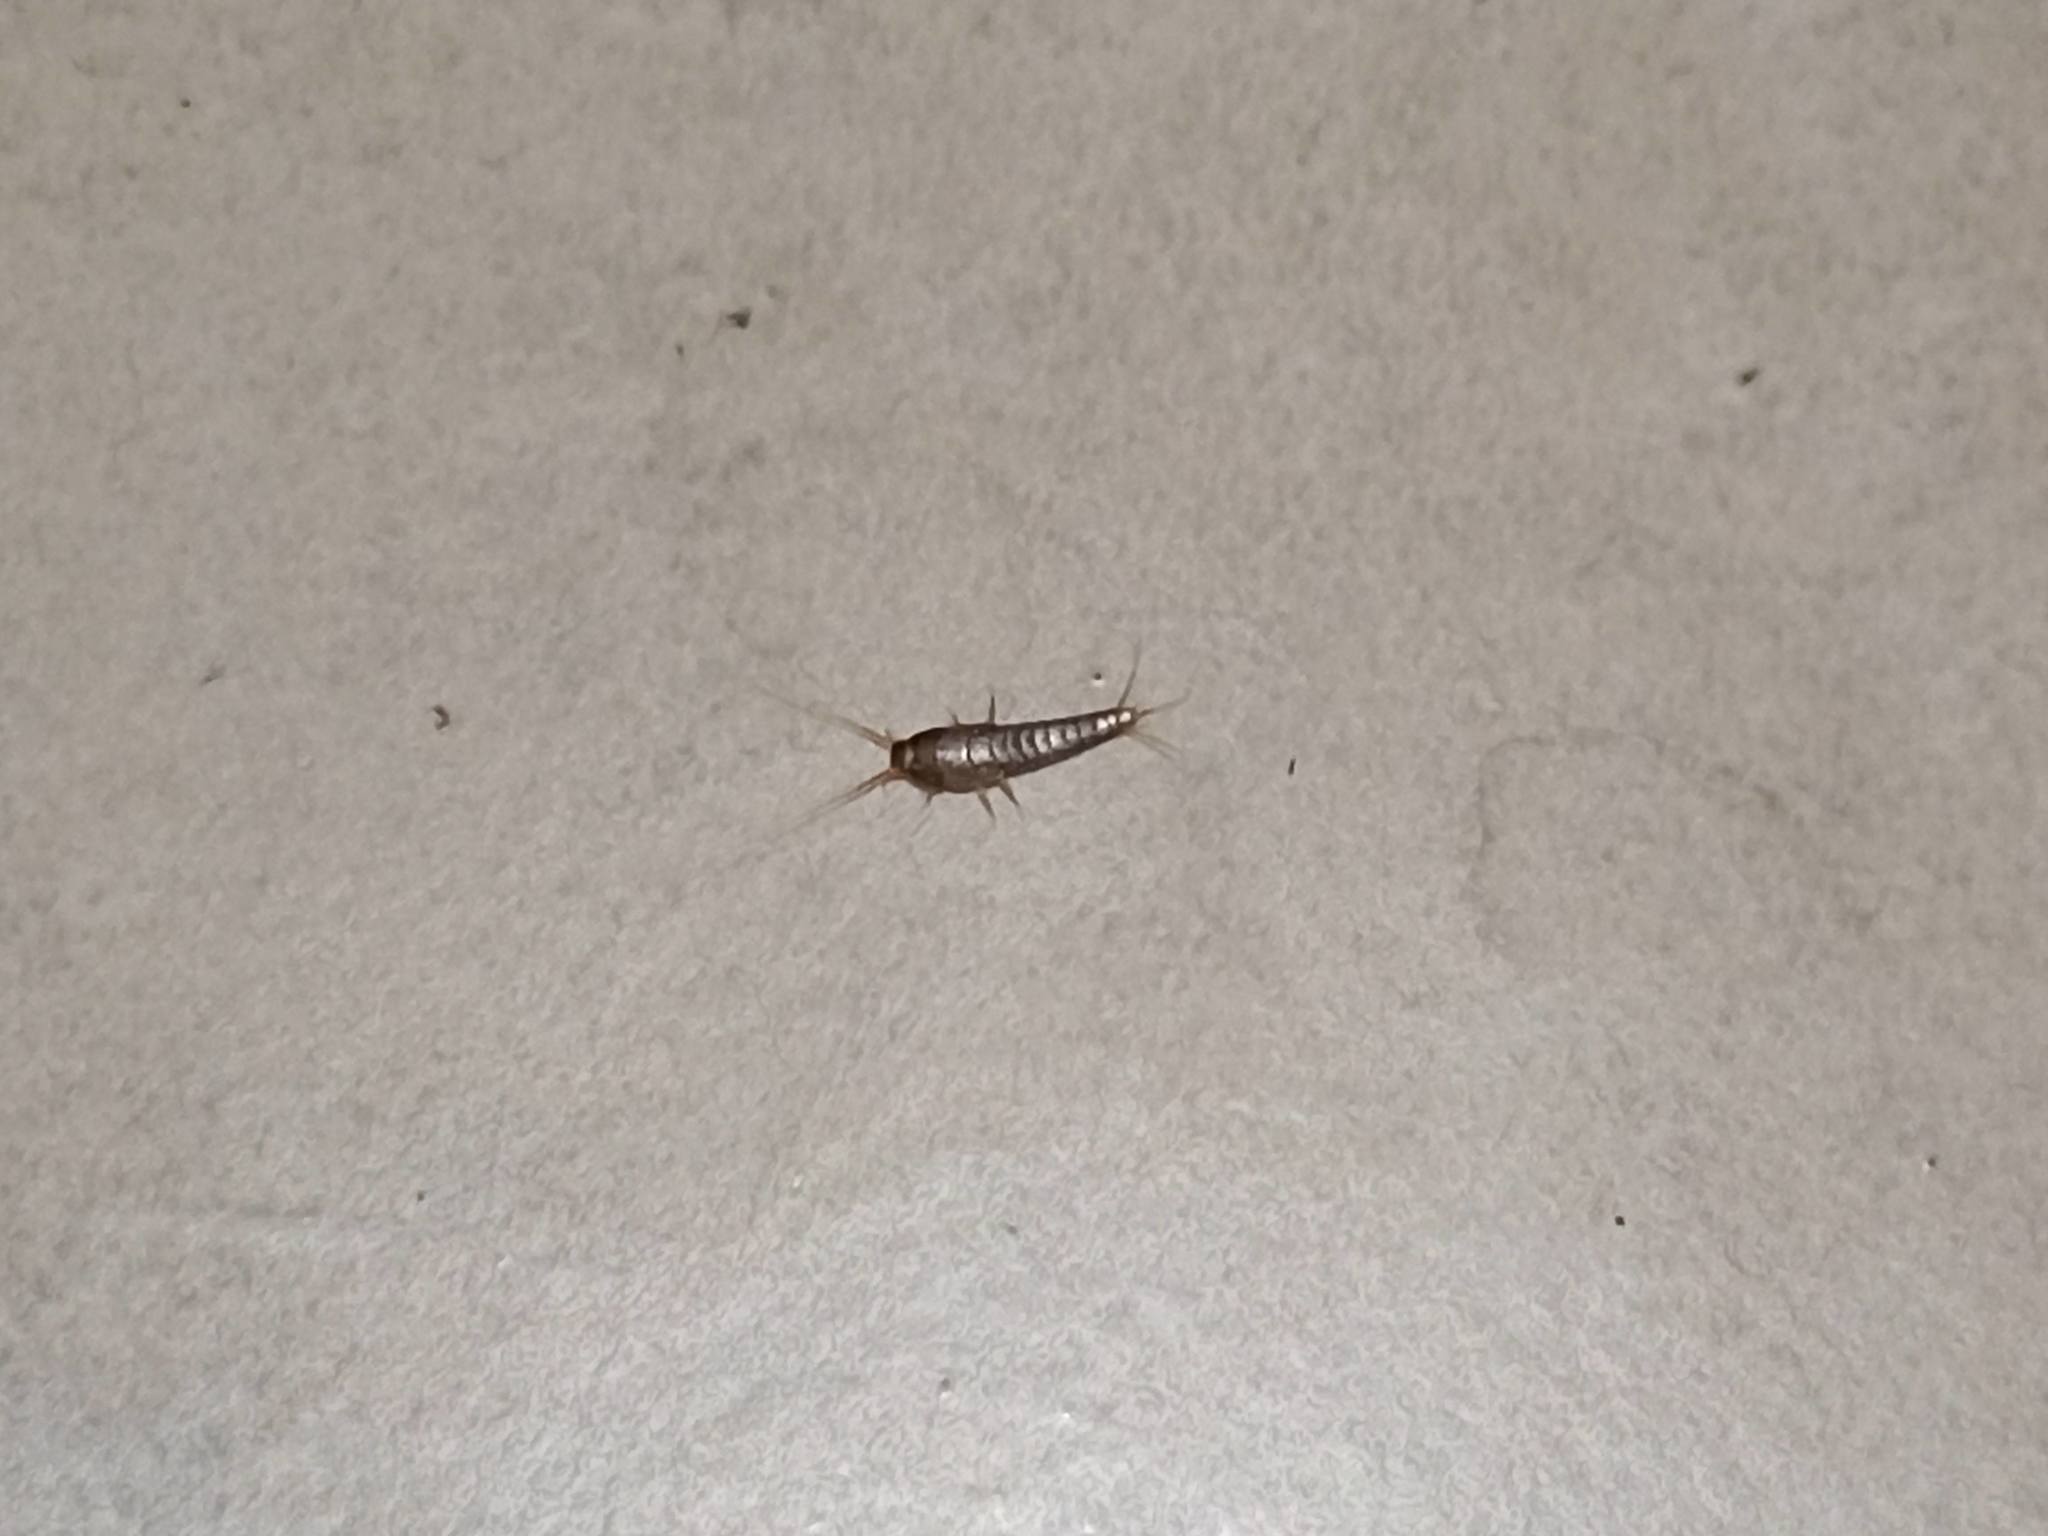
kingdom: Animalia
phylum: Arthropoda
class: Insecta
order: Zygentoma
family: Lepismatidae
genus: Lepisma
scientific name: Lepisma saccharinum
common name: Silverfish
